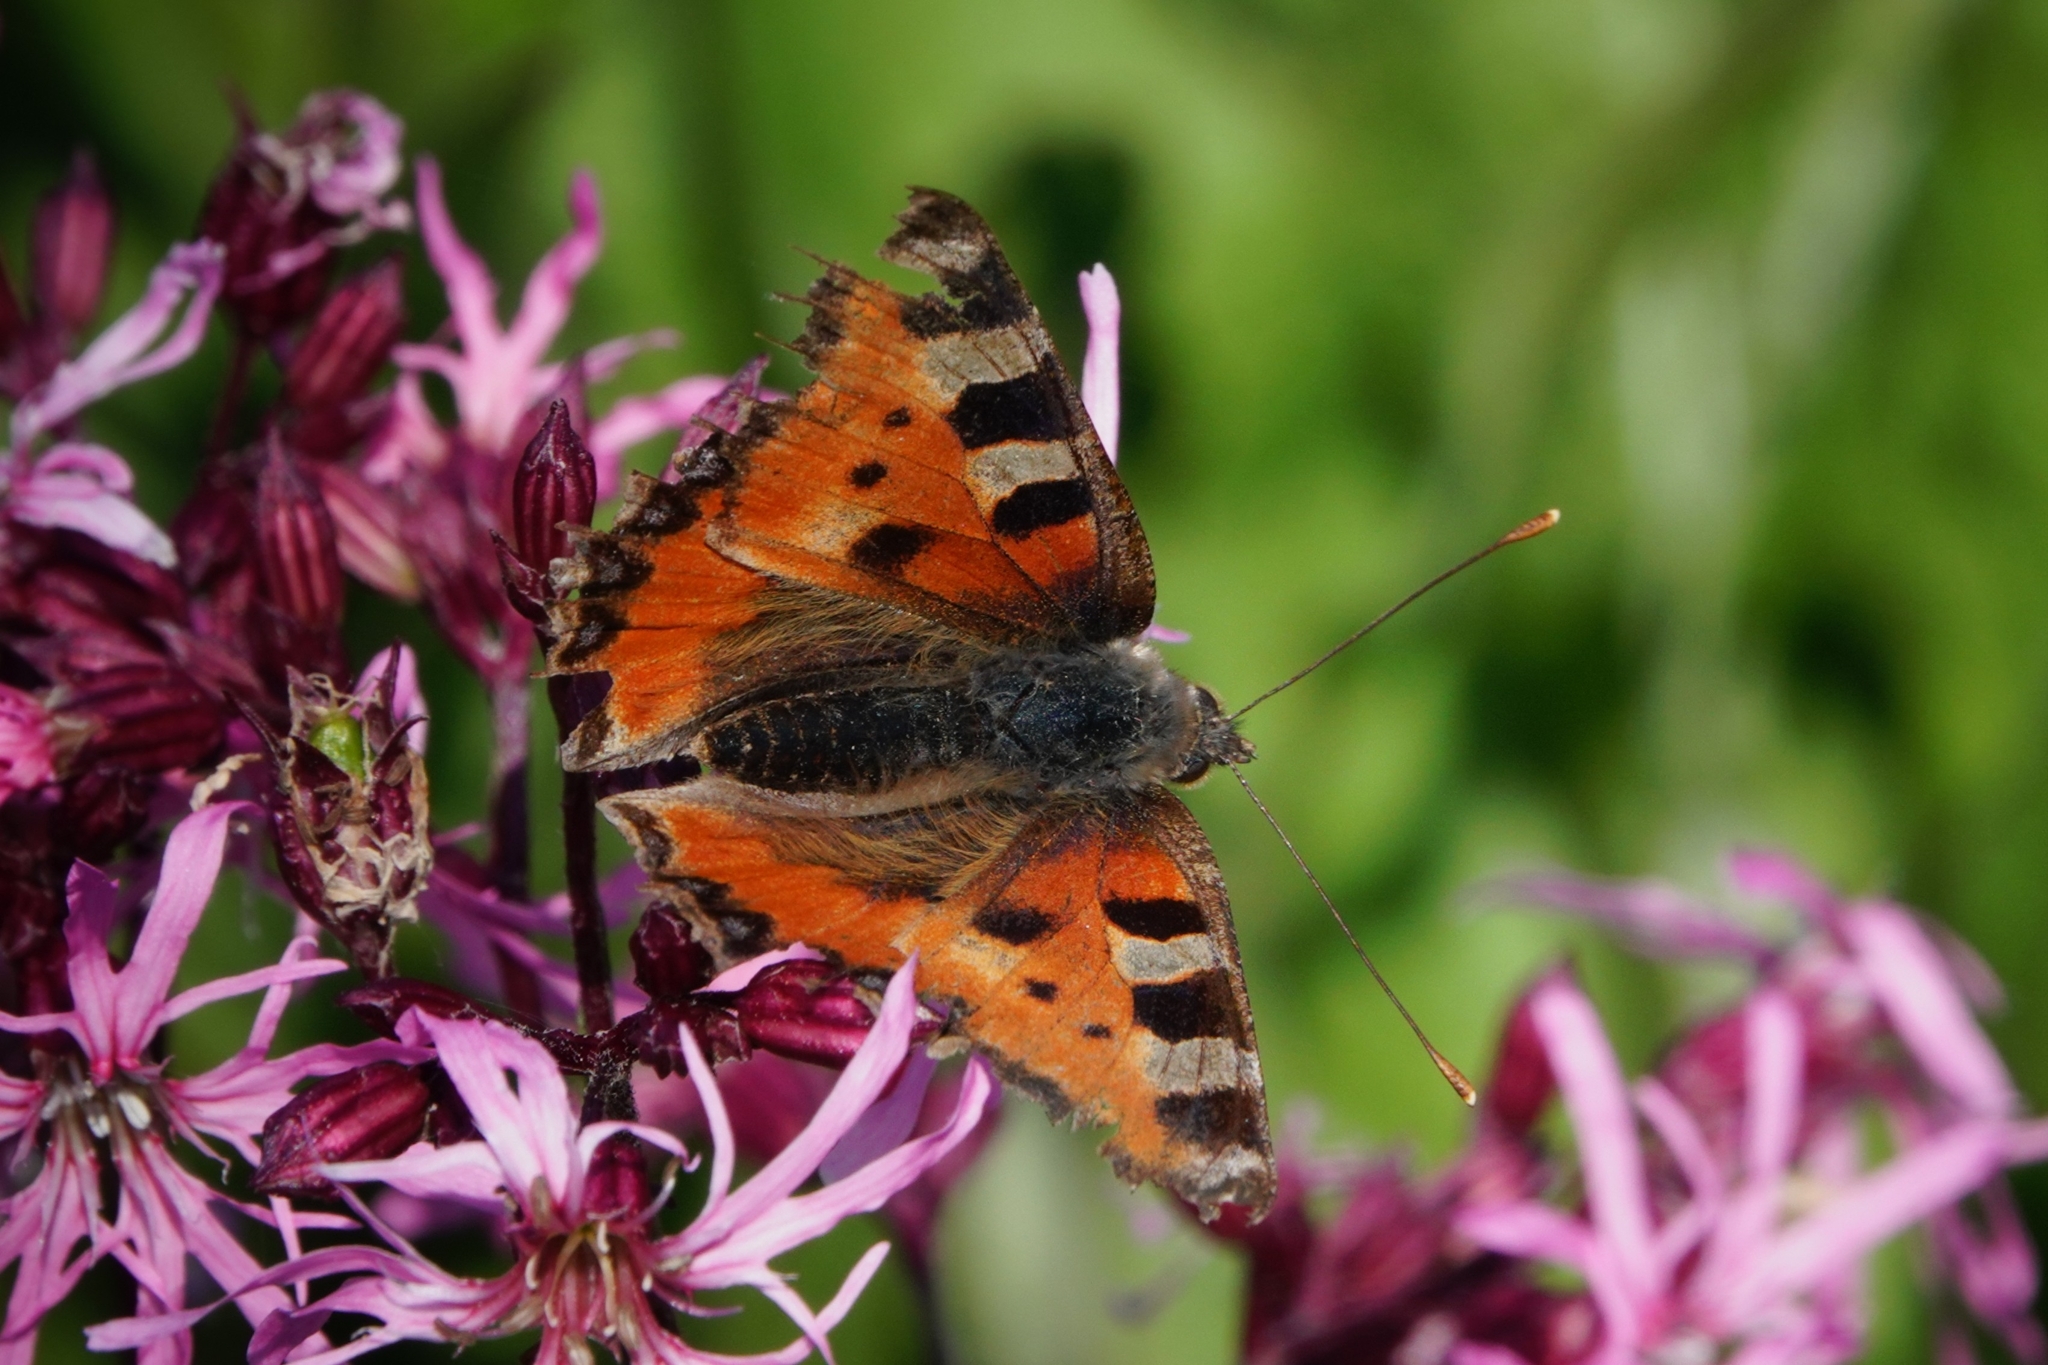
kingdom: Animalia
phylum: Arthropoda
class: Insecta
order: Lepidoptera
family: Nymphalidae
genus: Aglais
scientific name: Aglais urticae
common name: Small tortoiseshell
